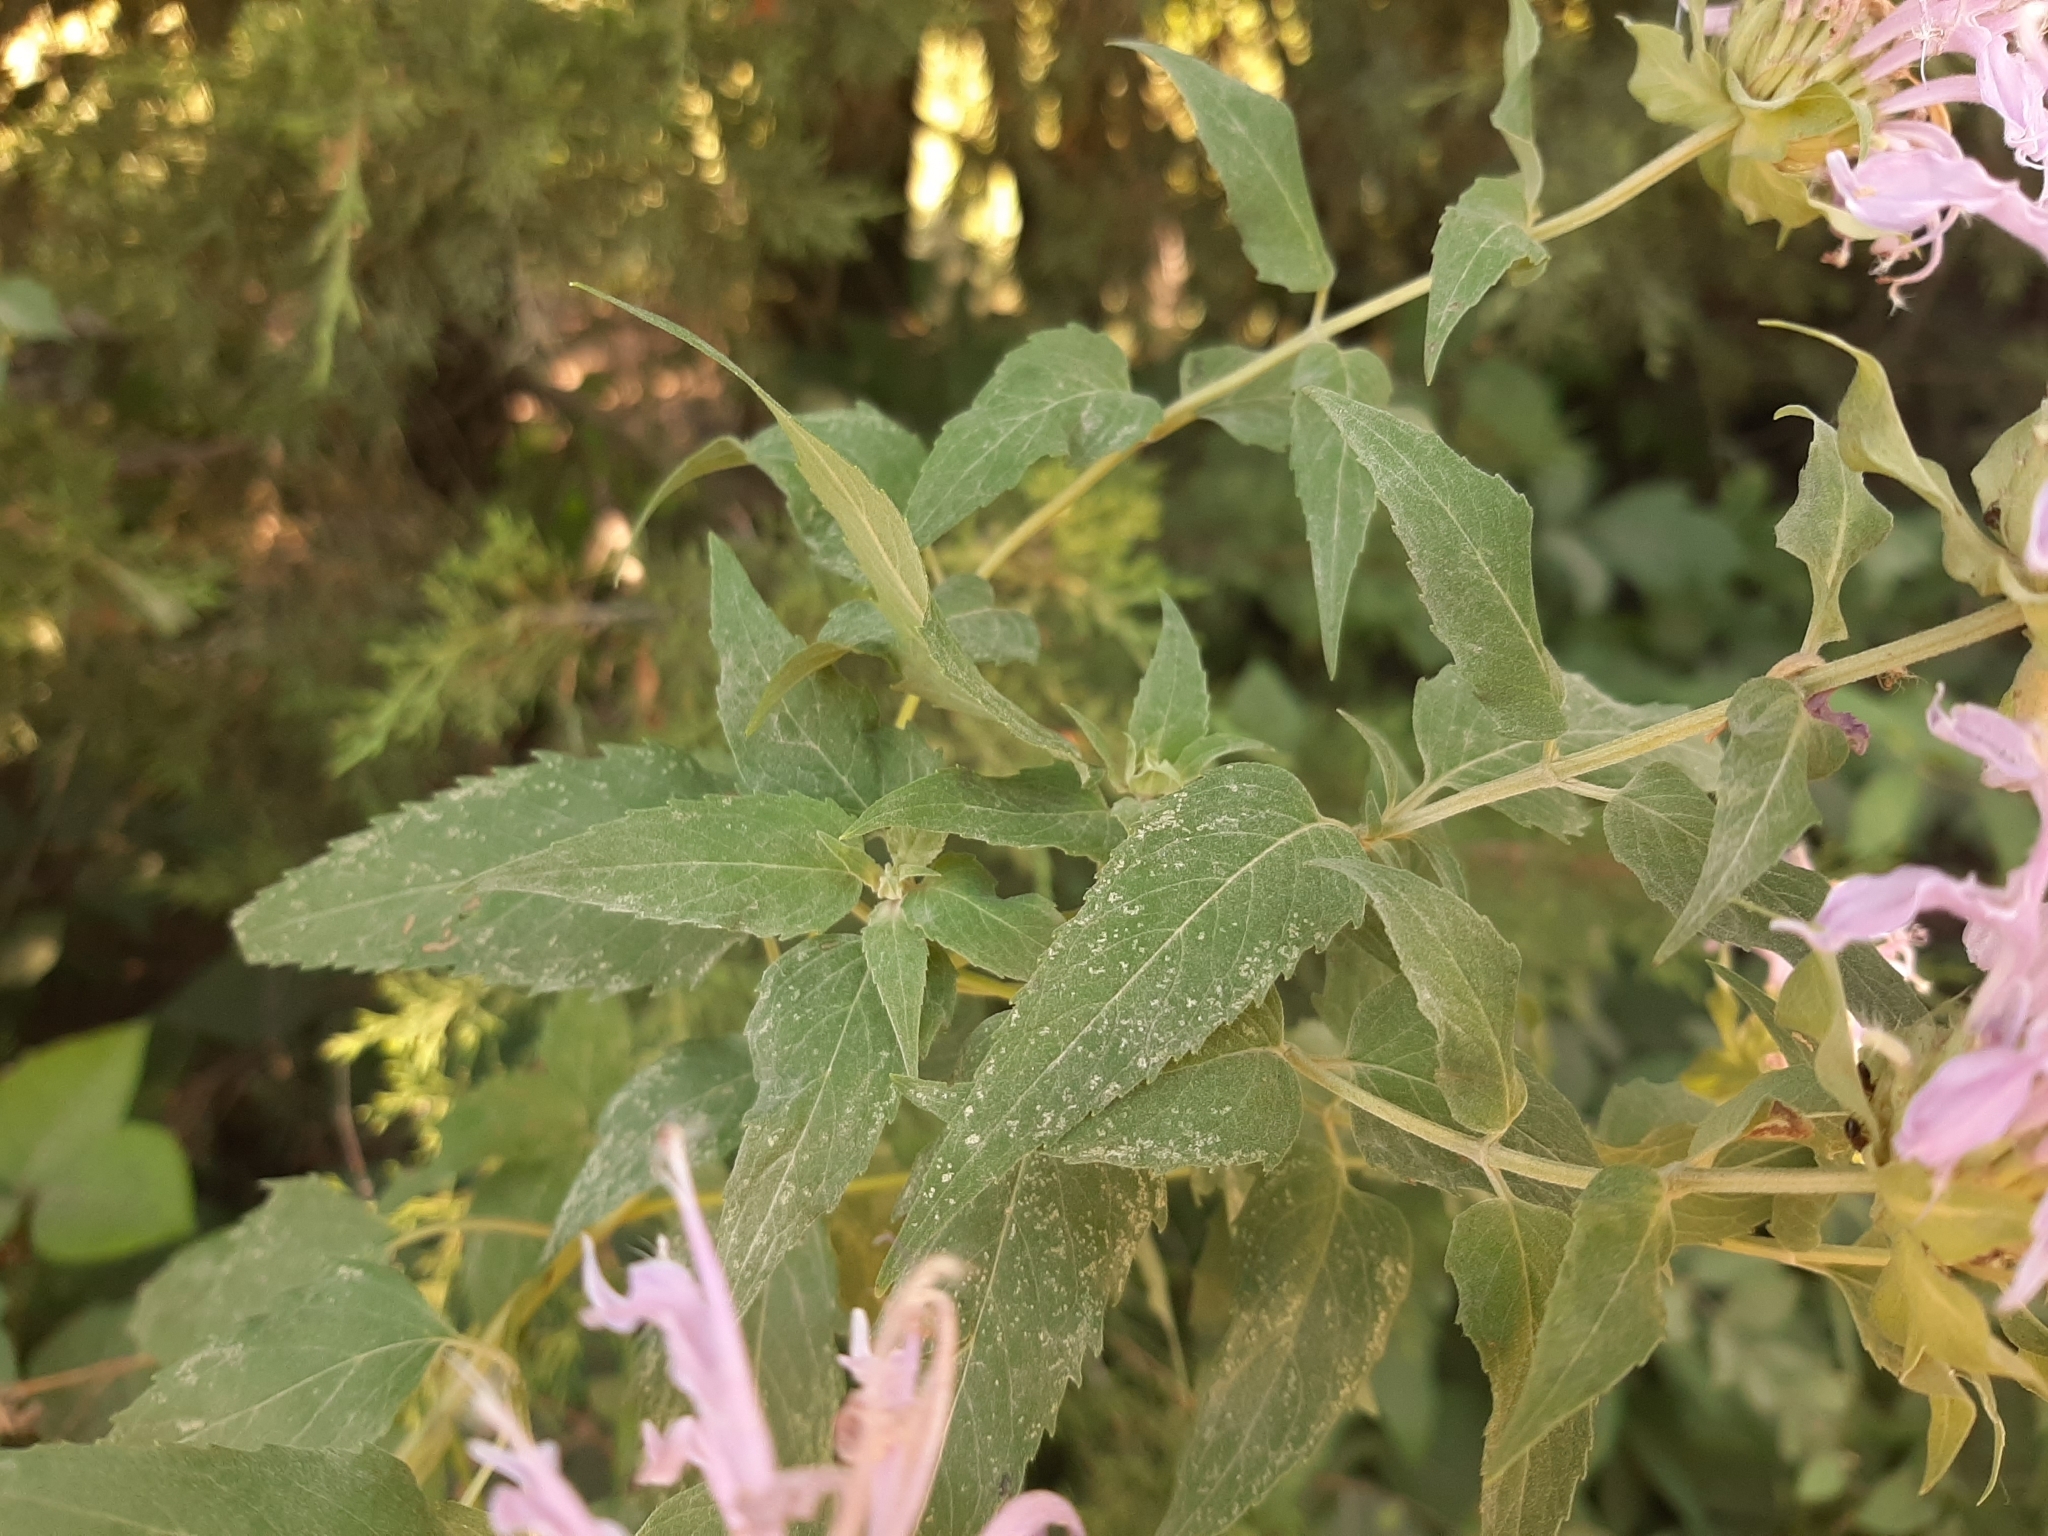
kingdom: Plantae
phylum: Tracheophyta
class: Magnoliopsida
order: Lamiales
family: Lamiaceae
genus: Monarda
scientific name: Monarda fistulosa
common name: Purple beebalm
